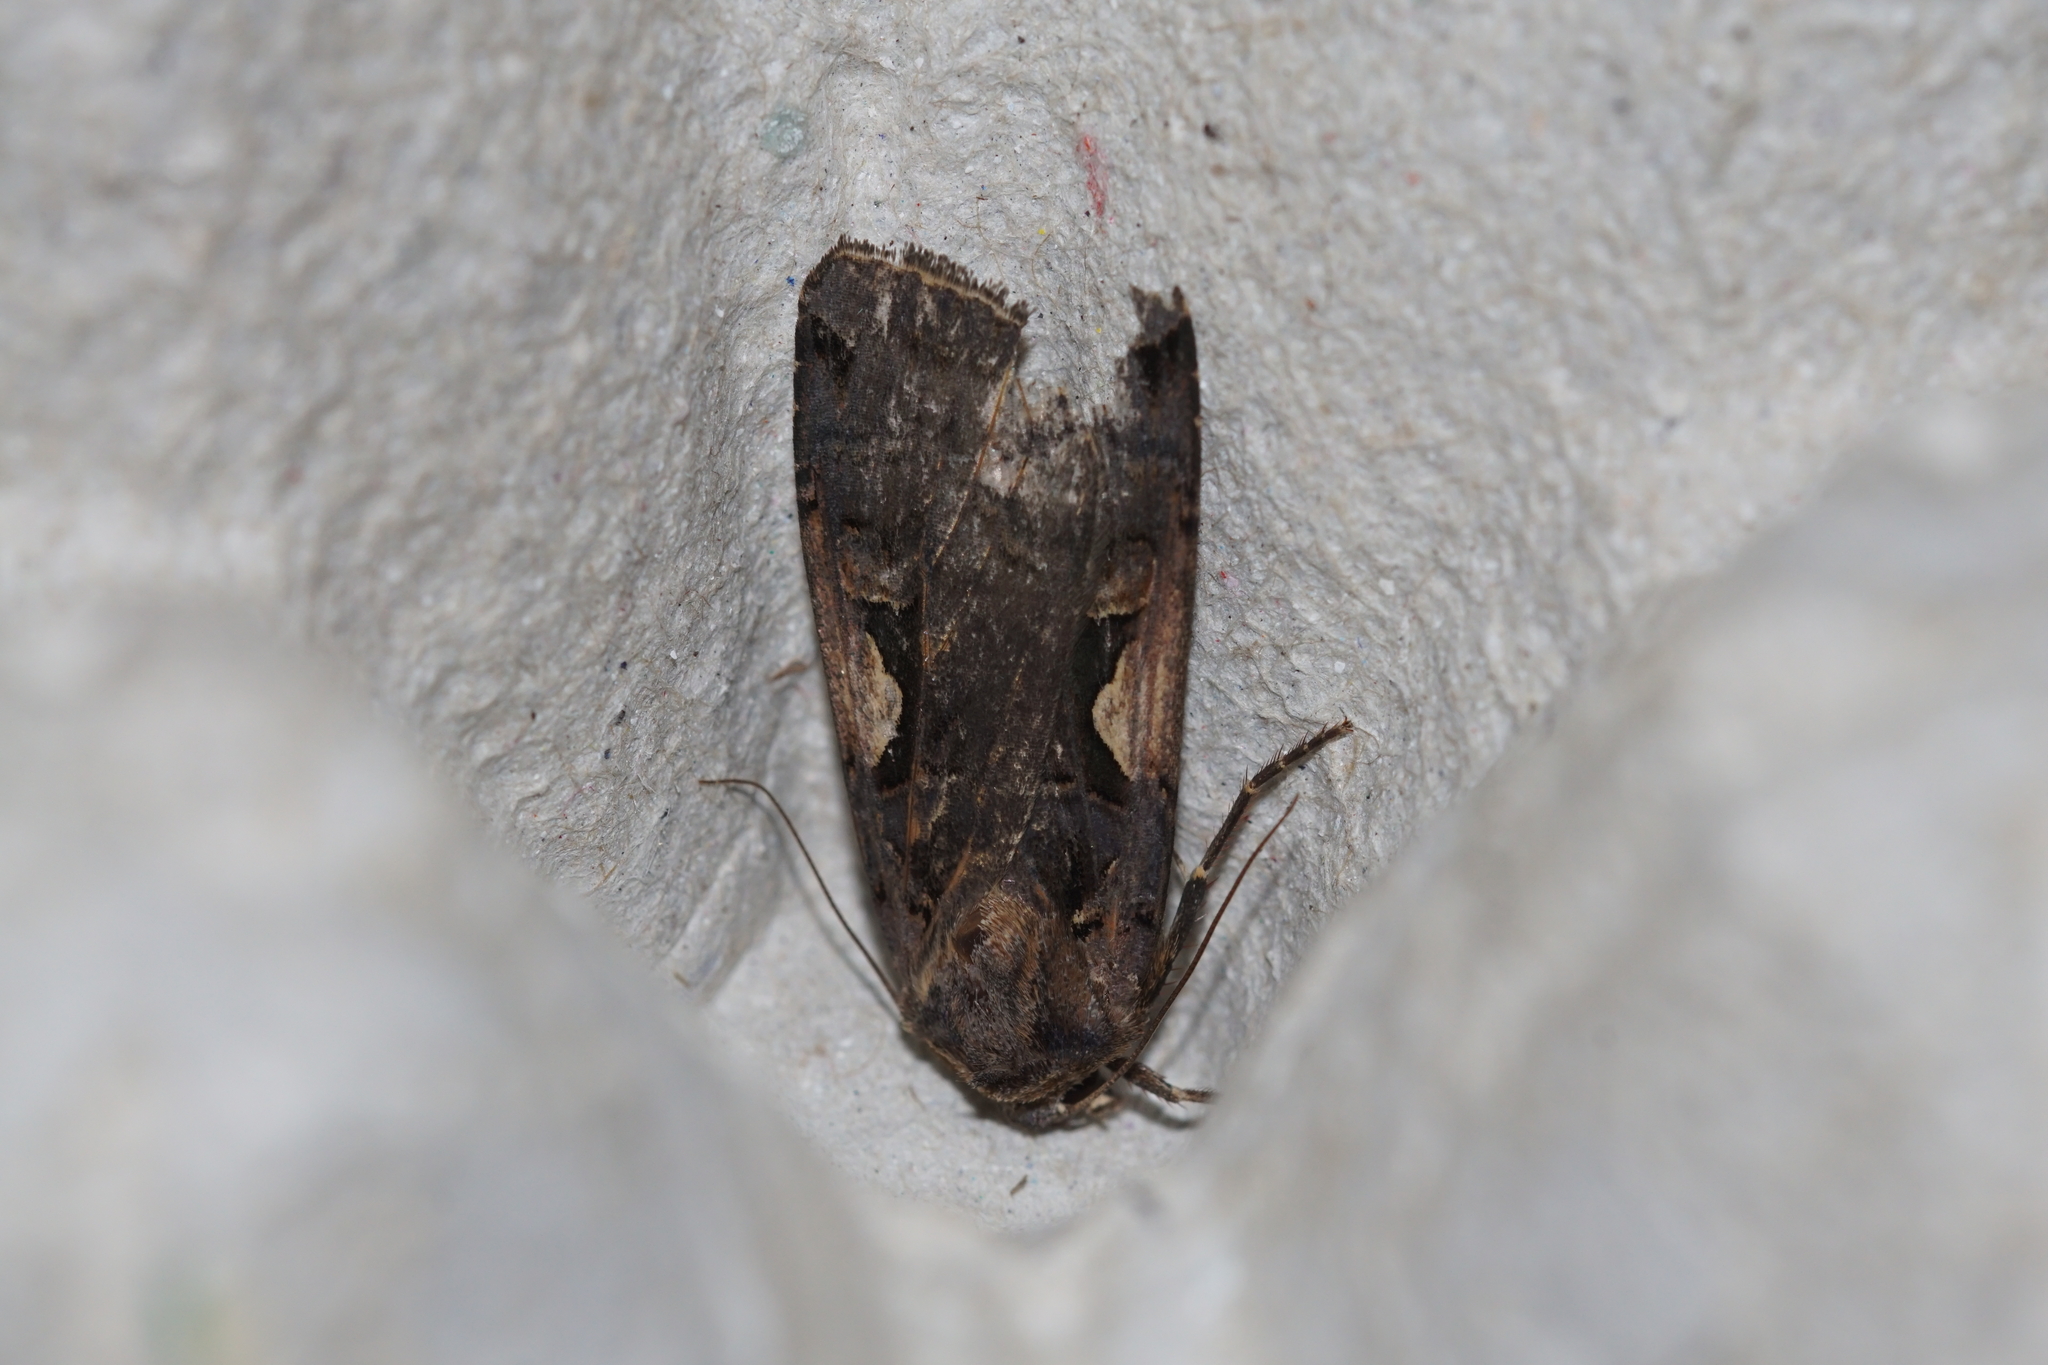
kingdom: Animalia
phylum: Arthropoda
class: Insecta
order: Lepidoptera
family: Noctuidae
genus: Xestia
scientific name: Xestia c-nigrum
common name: Setaceous hebrew character
